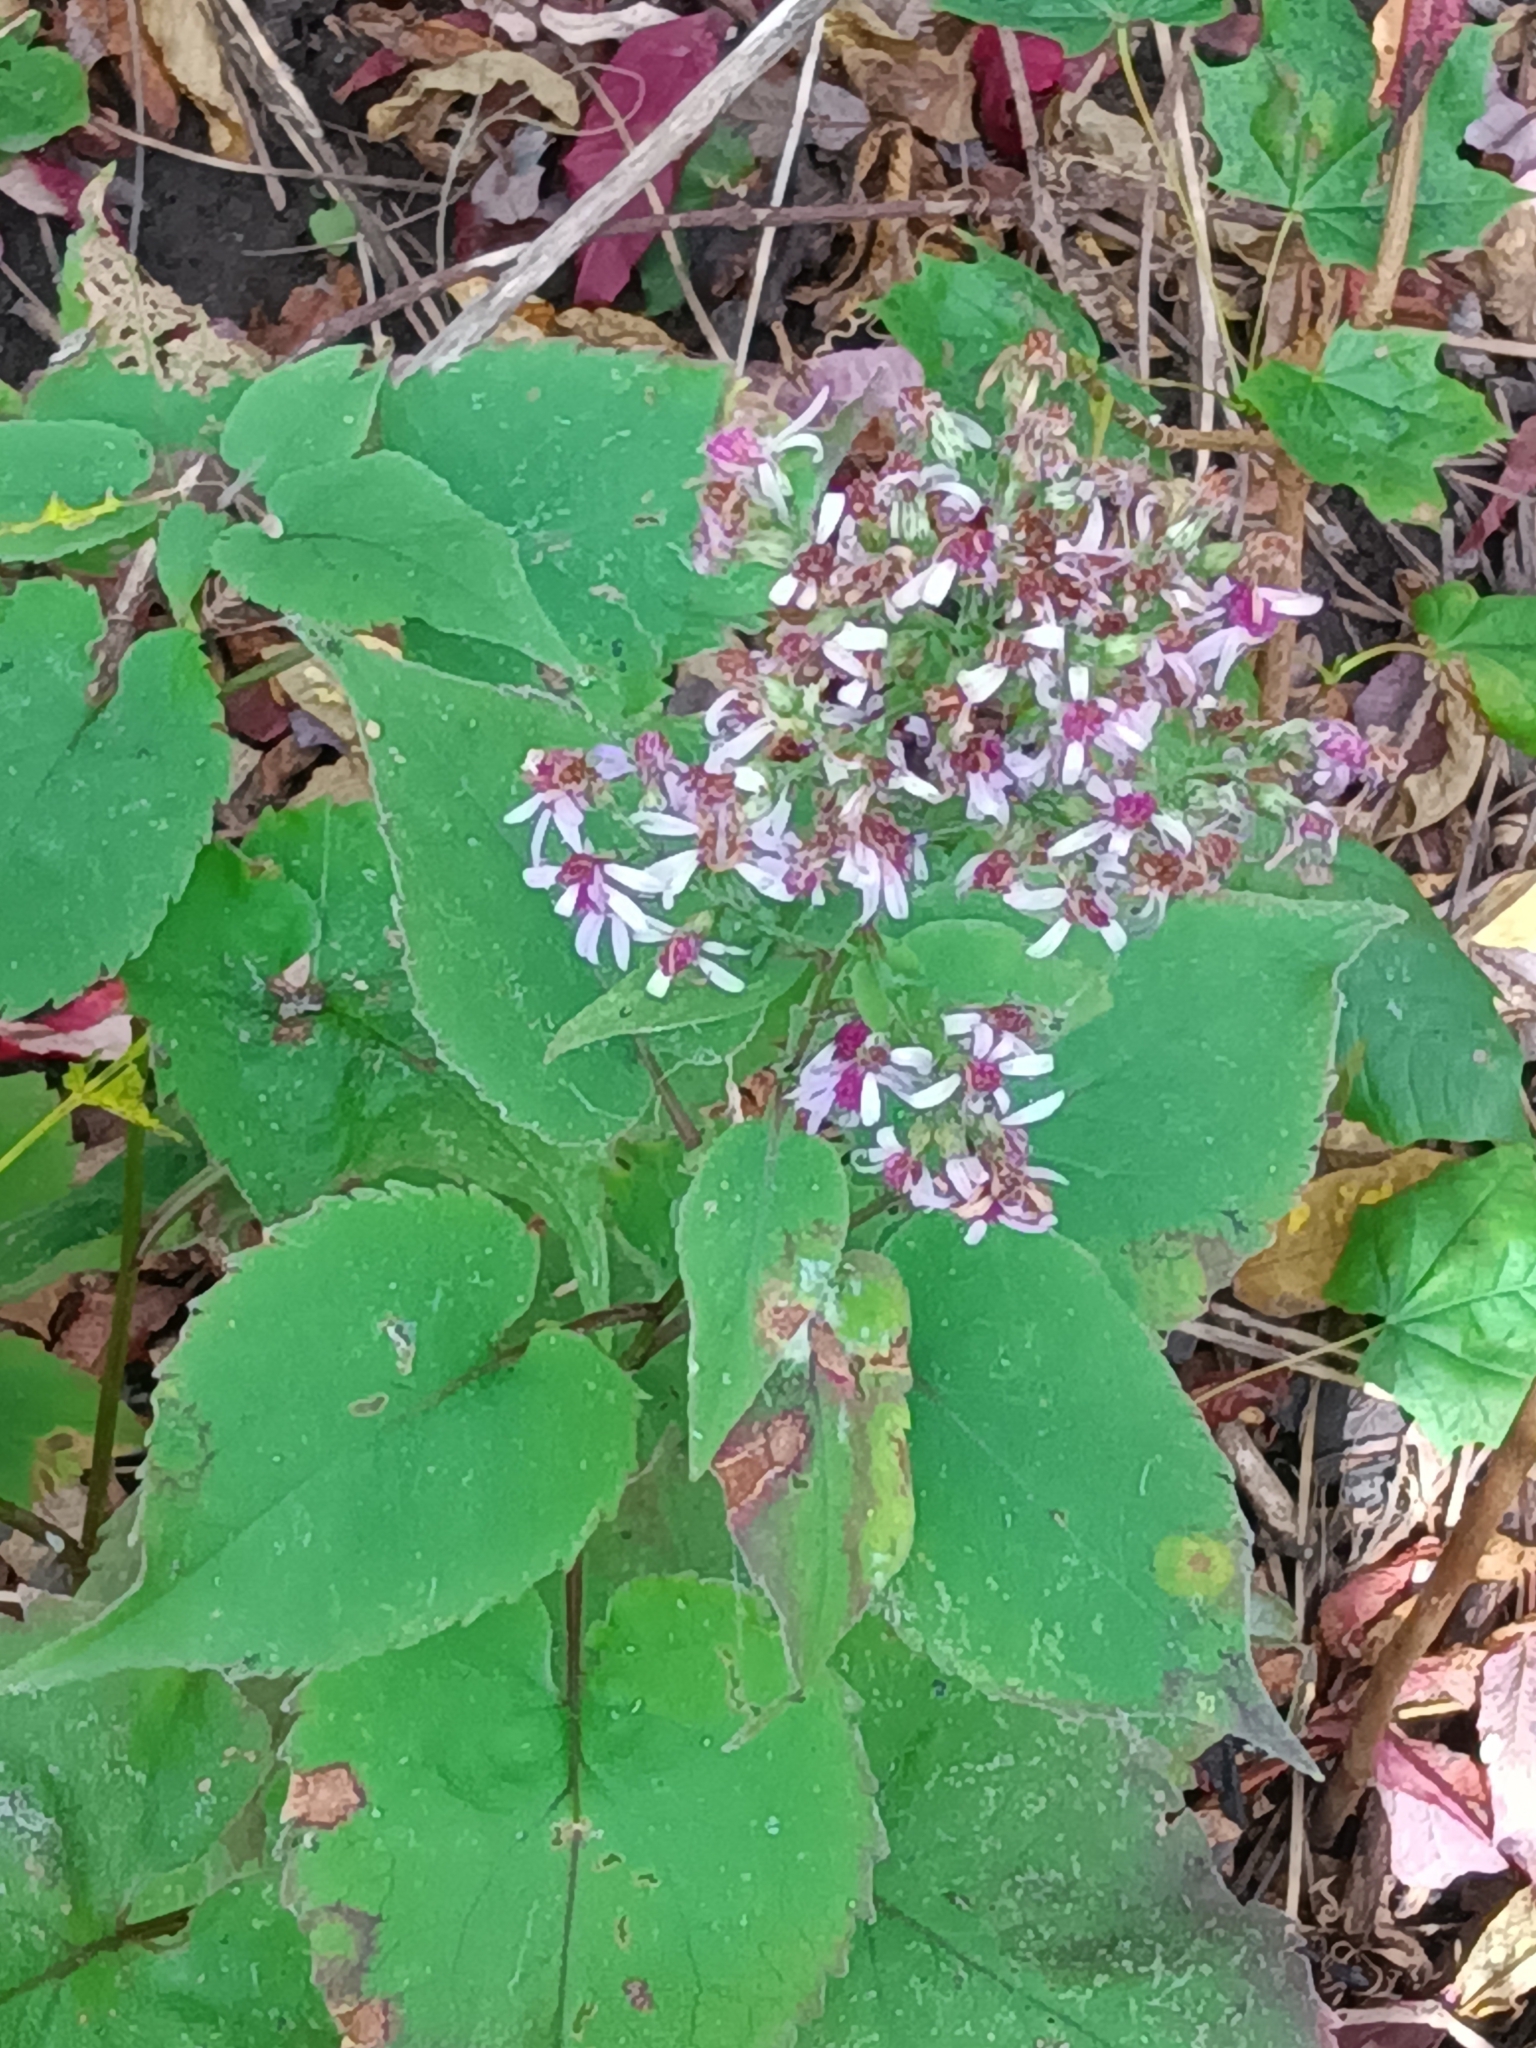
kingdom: Plantae
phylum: Tracheophyta
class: Magnoliopsida
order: Asterales
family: Asteraceae
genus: Symphyotrichum
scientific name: Symphyotrichum cordifolium
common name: Beeweed
